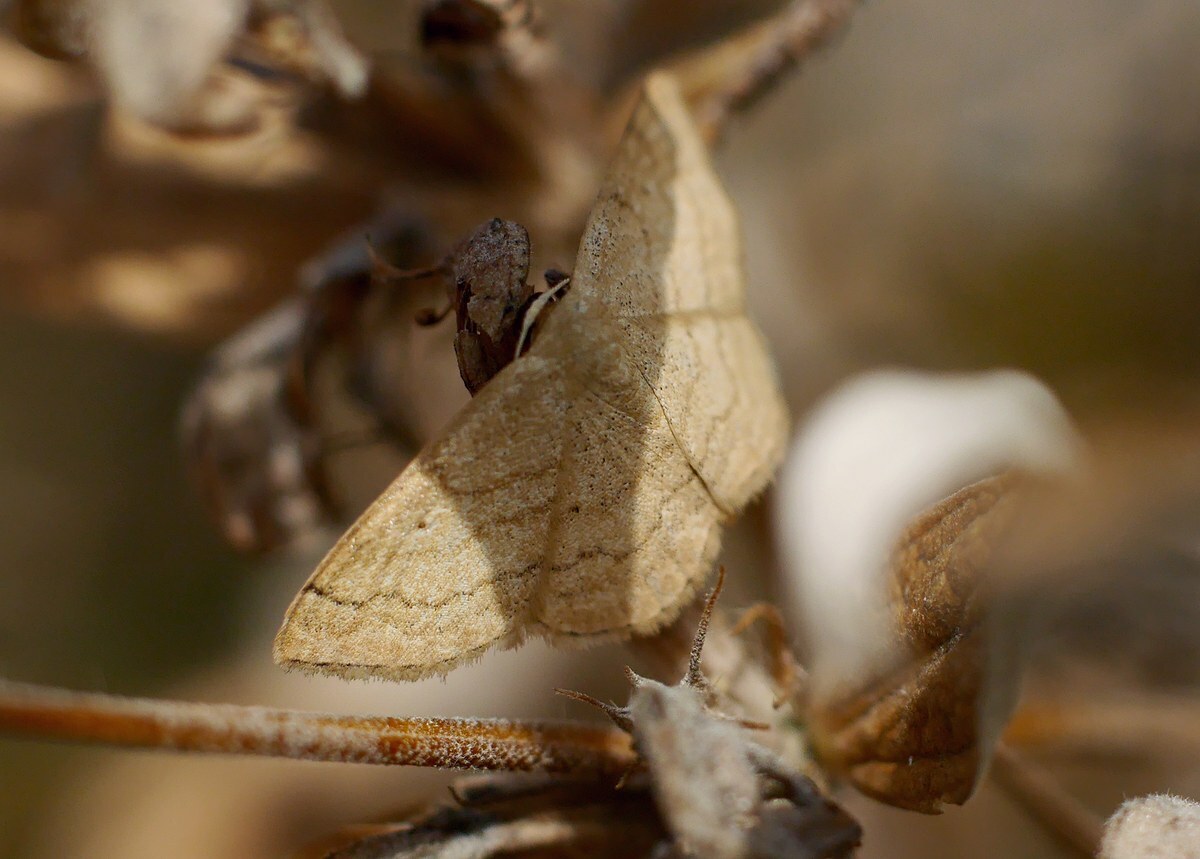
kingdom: Animalia
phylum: Arthropoda
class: Insecta
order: Lepidoptera
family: Geometridae
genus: Scopula
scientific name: Scopula rubiginata
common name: Tawny wave
